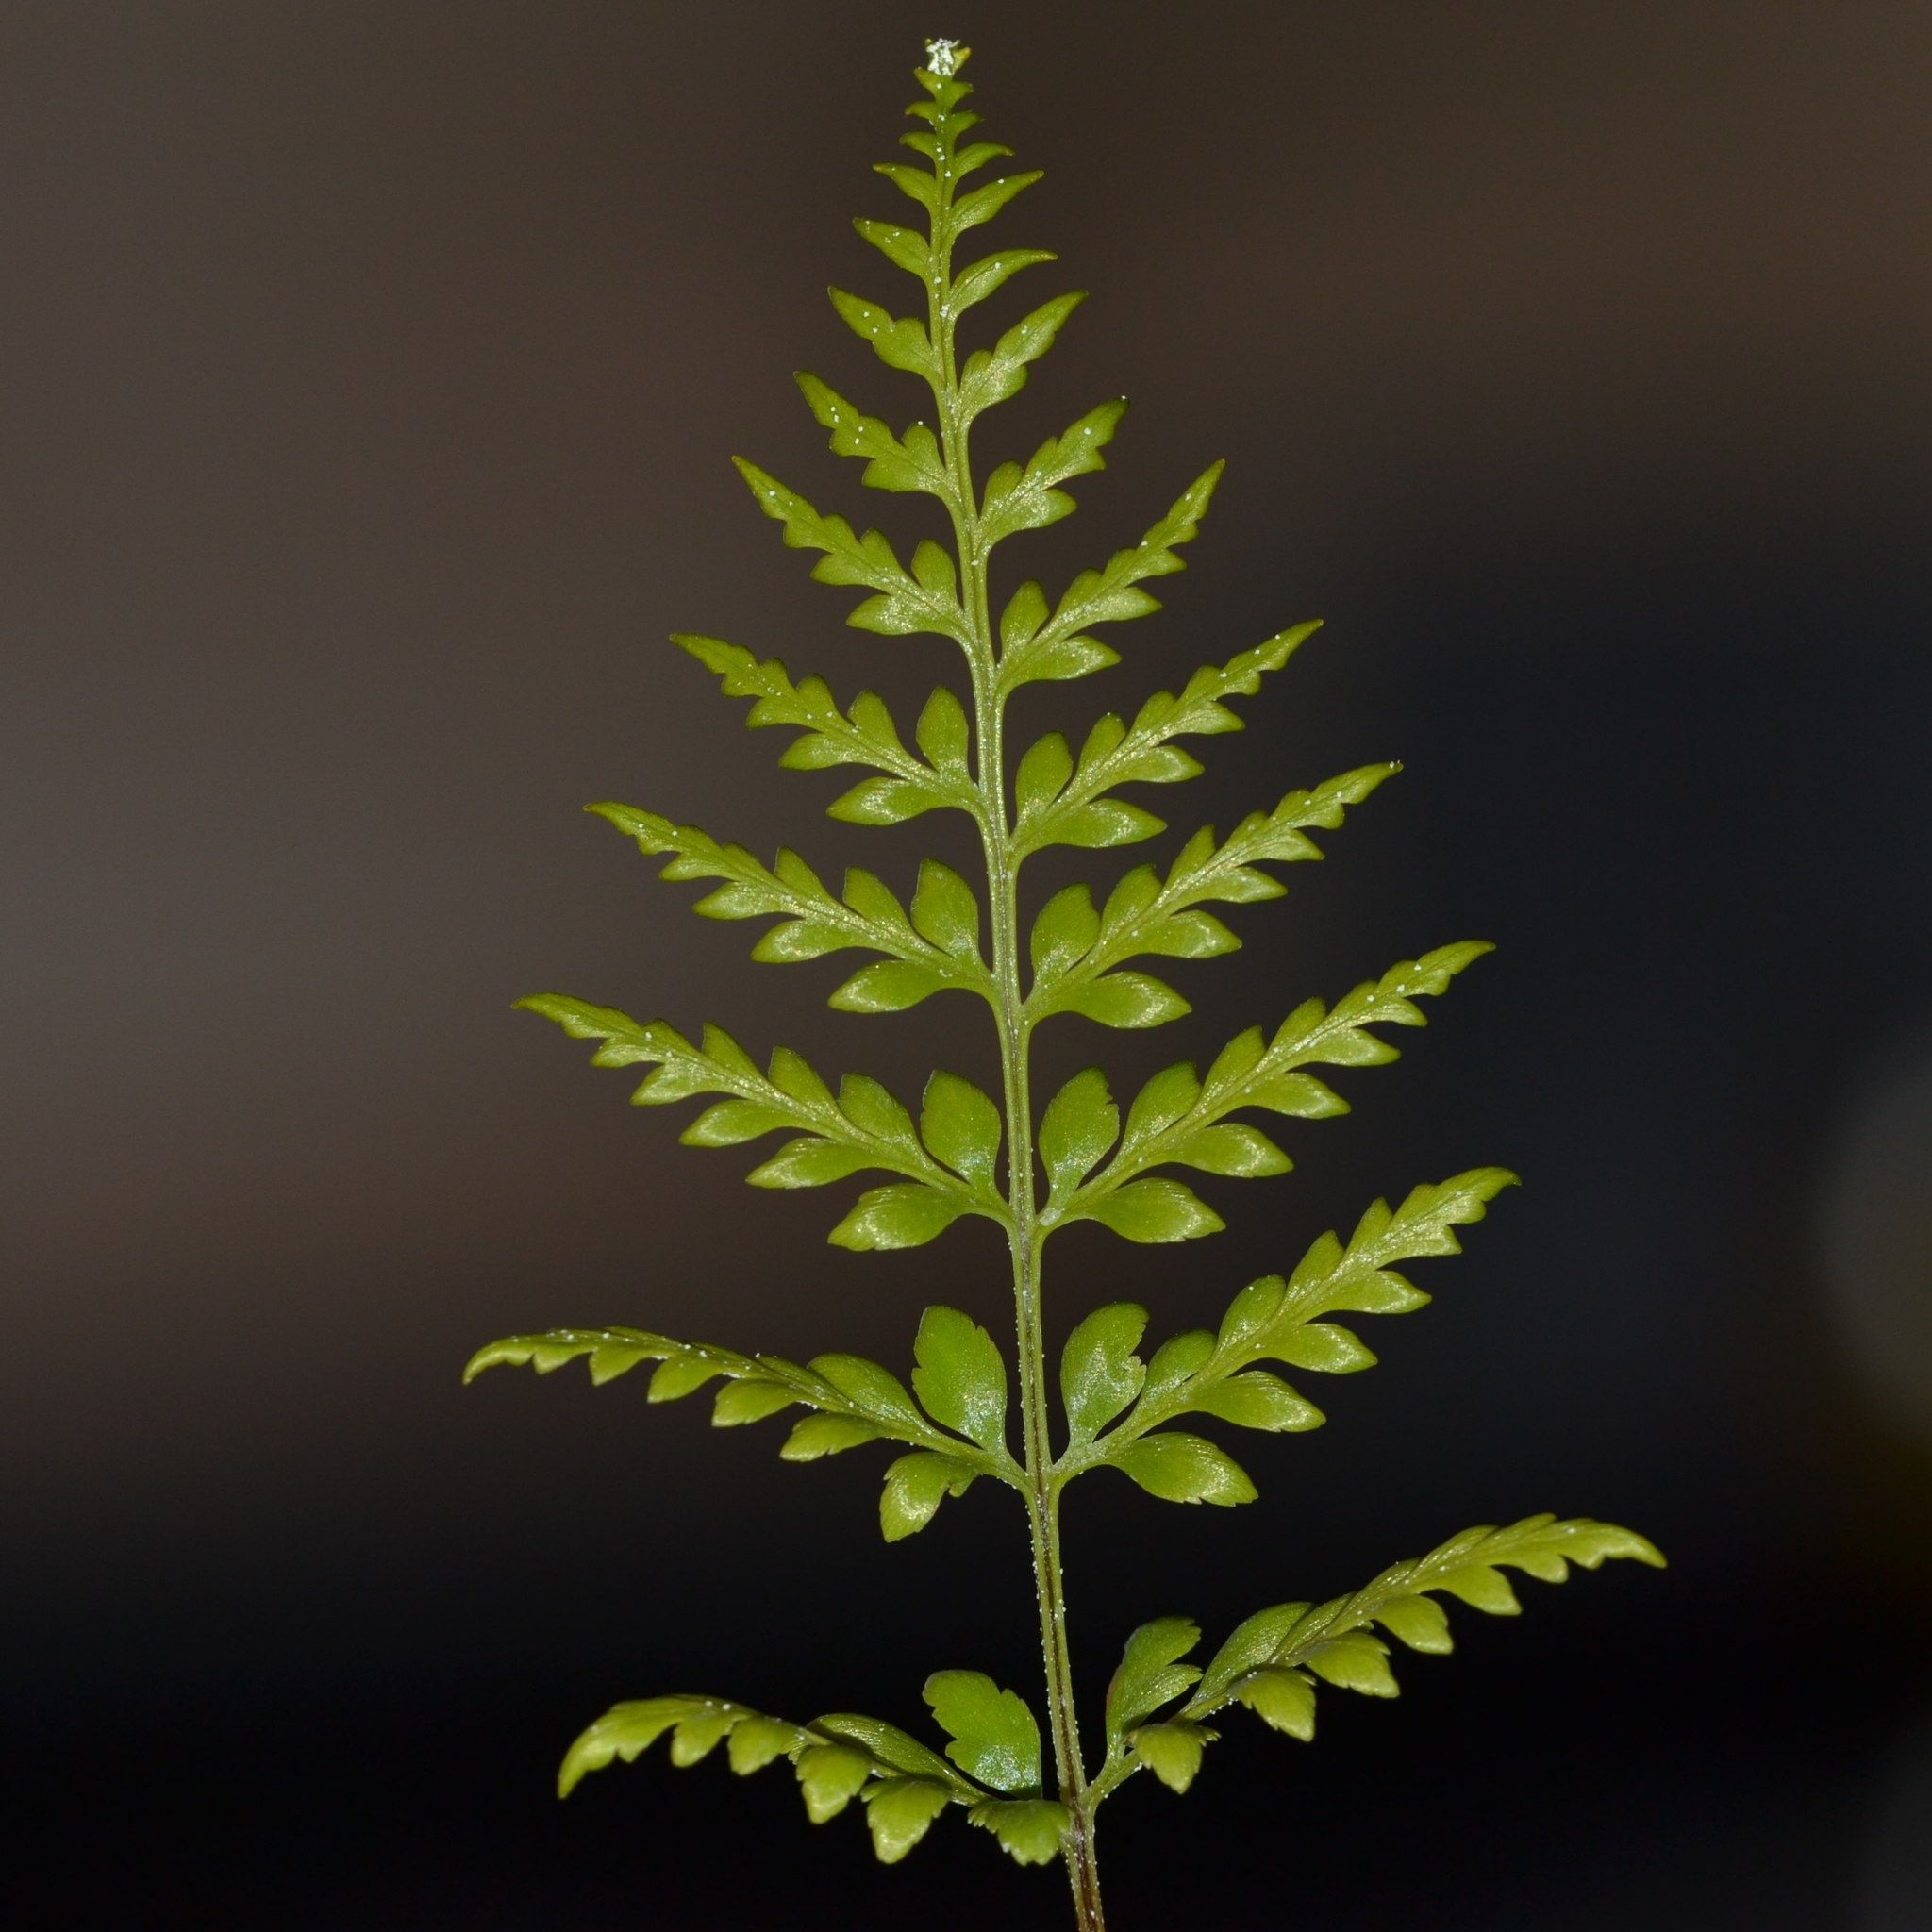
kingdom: Plantae
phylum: Tracheophyta
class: Polypodiopsida
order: Polypodiales
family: Pteridaceae
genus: Pityrogramma
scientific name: Pityrogramma calomelanos
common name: Dixie silverback fern
